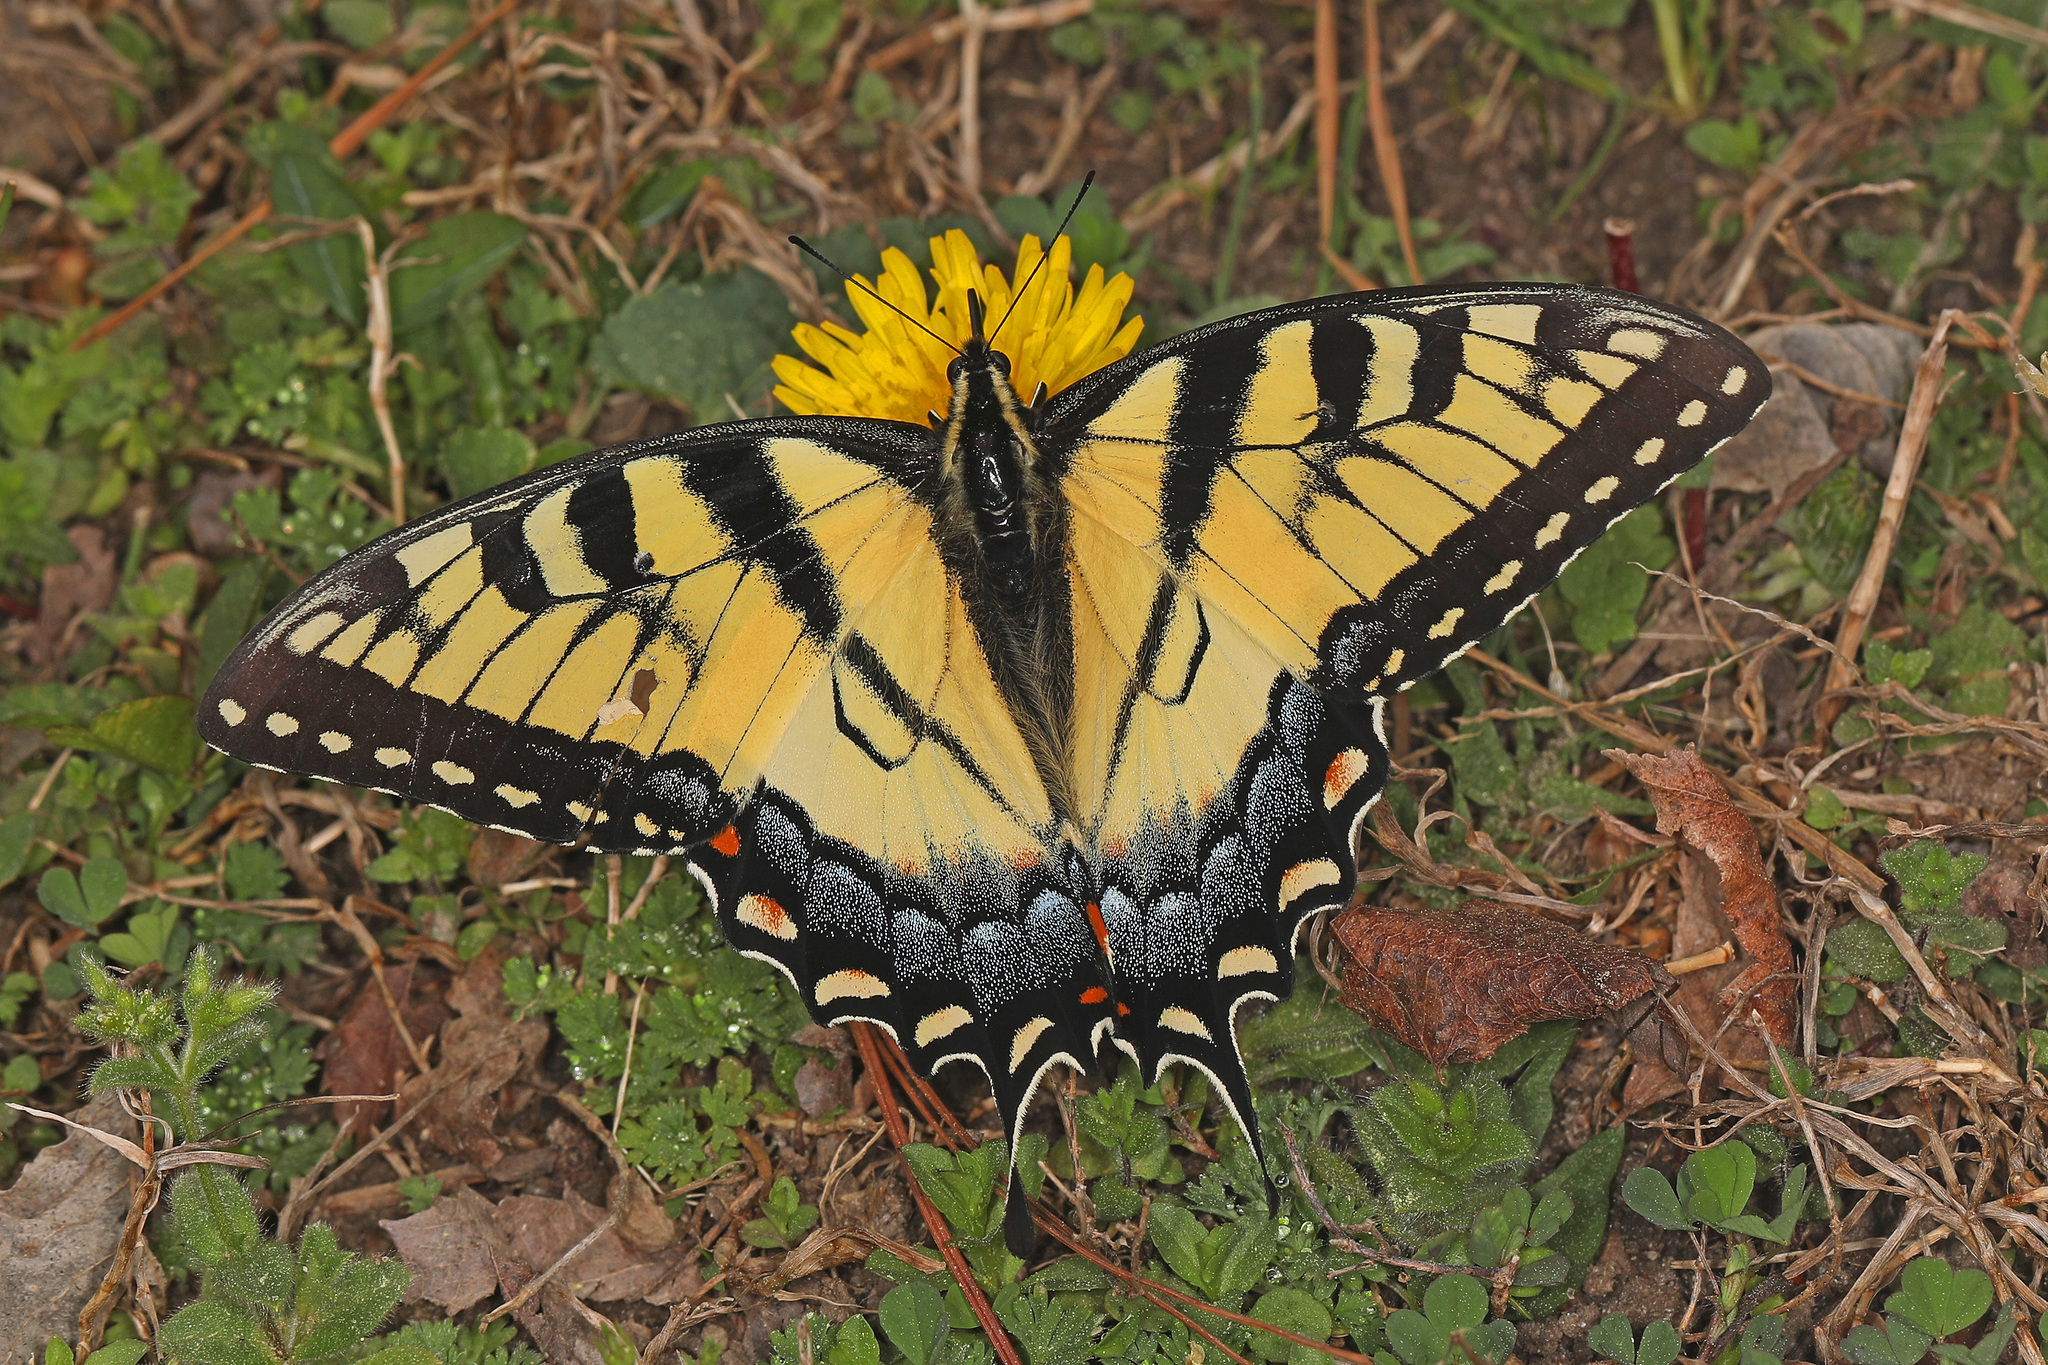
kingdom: Animalia
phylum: Arthropoda
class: Insecta
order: Lepidoptera
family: Papilionidae
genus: Papilio
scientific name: Papilio glaucus
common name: Tiger swallowtail
